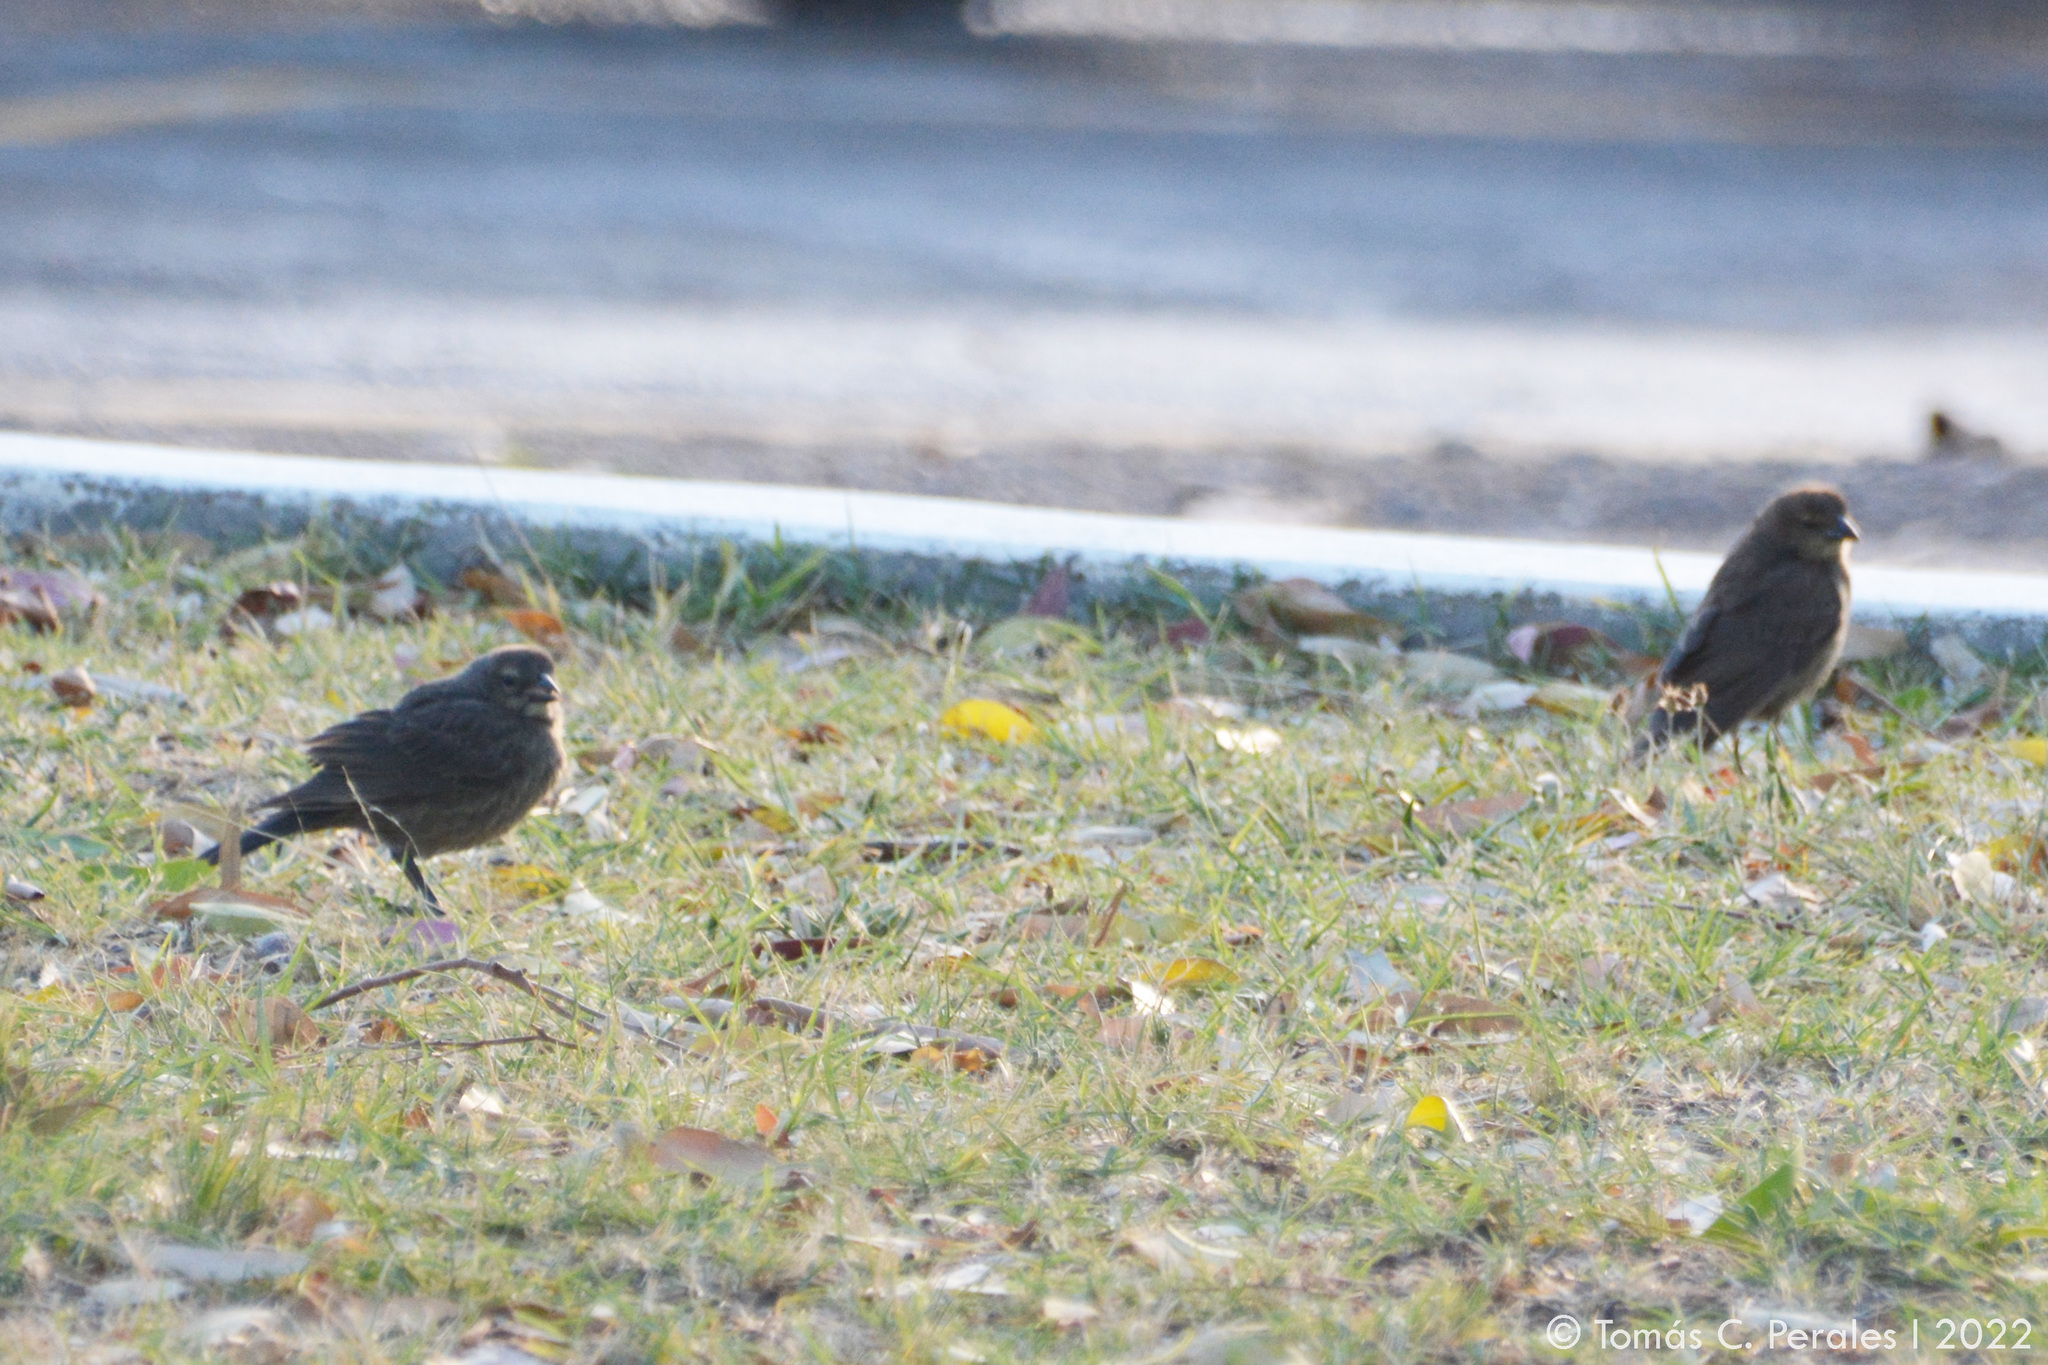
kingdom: Animalia
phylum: Chordata
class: Aves
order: Passeriformes
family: Icteridae
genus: Molothrus
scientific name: Molothrus bonariensis
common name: Shiny cowbird
